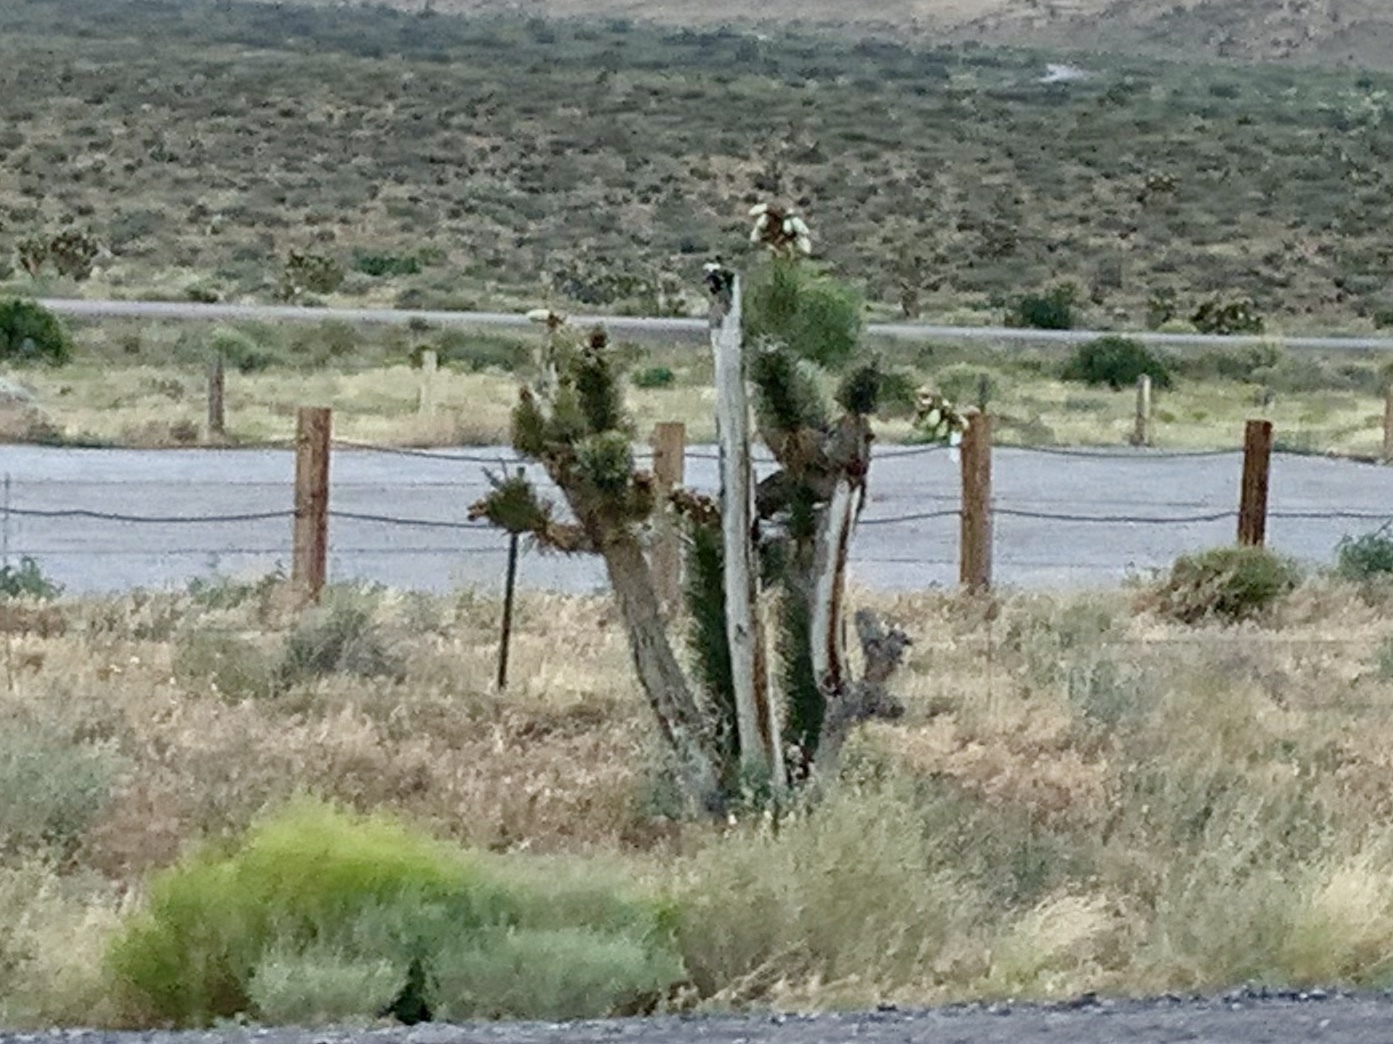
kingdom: Plantae
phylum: Tracheophyta
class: Liliopsida
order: Asparagales
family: Asparagaceae
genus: Yucca
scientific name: Yucca brevifolia
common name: Joshua tree
